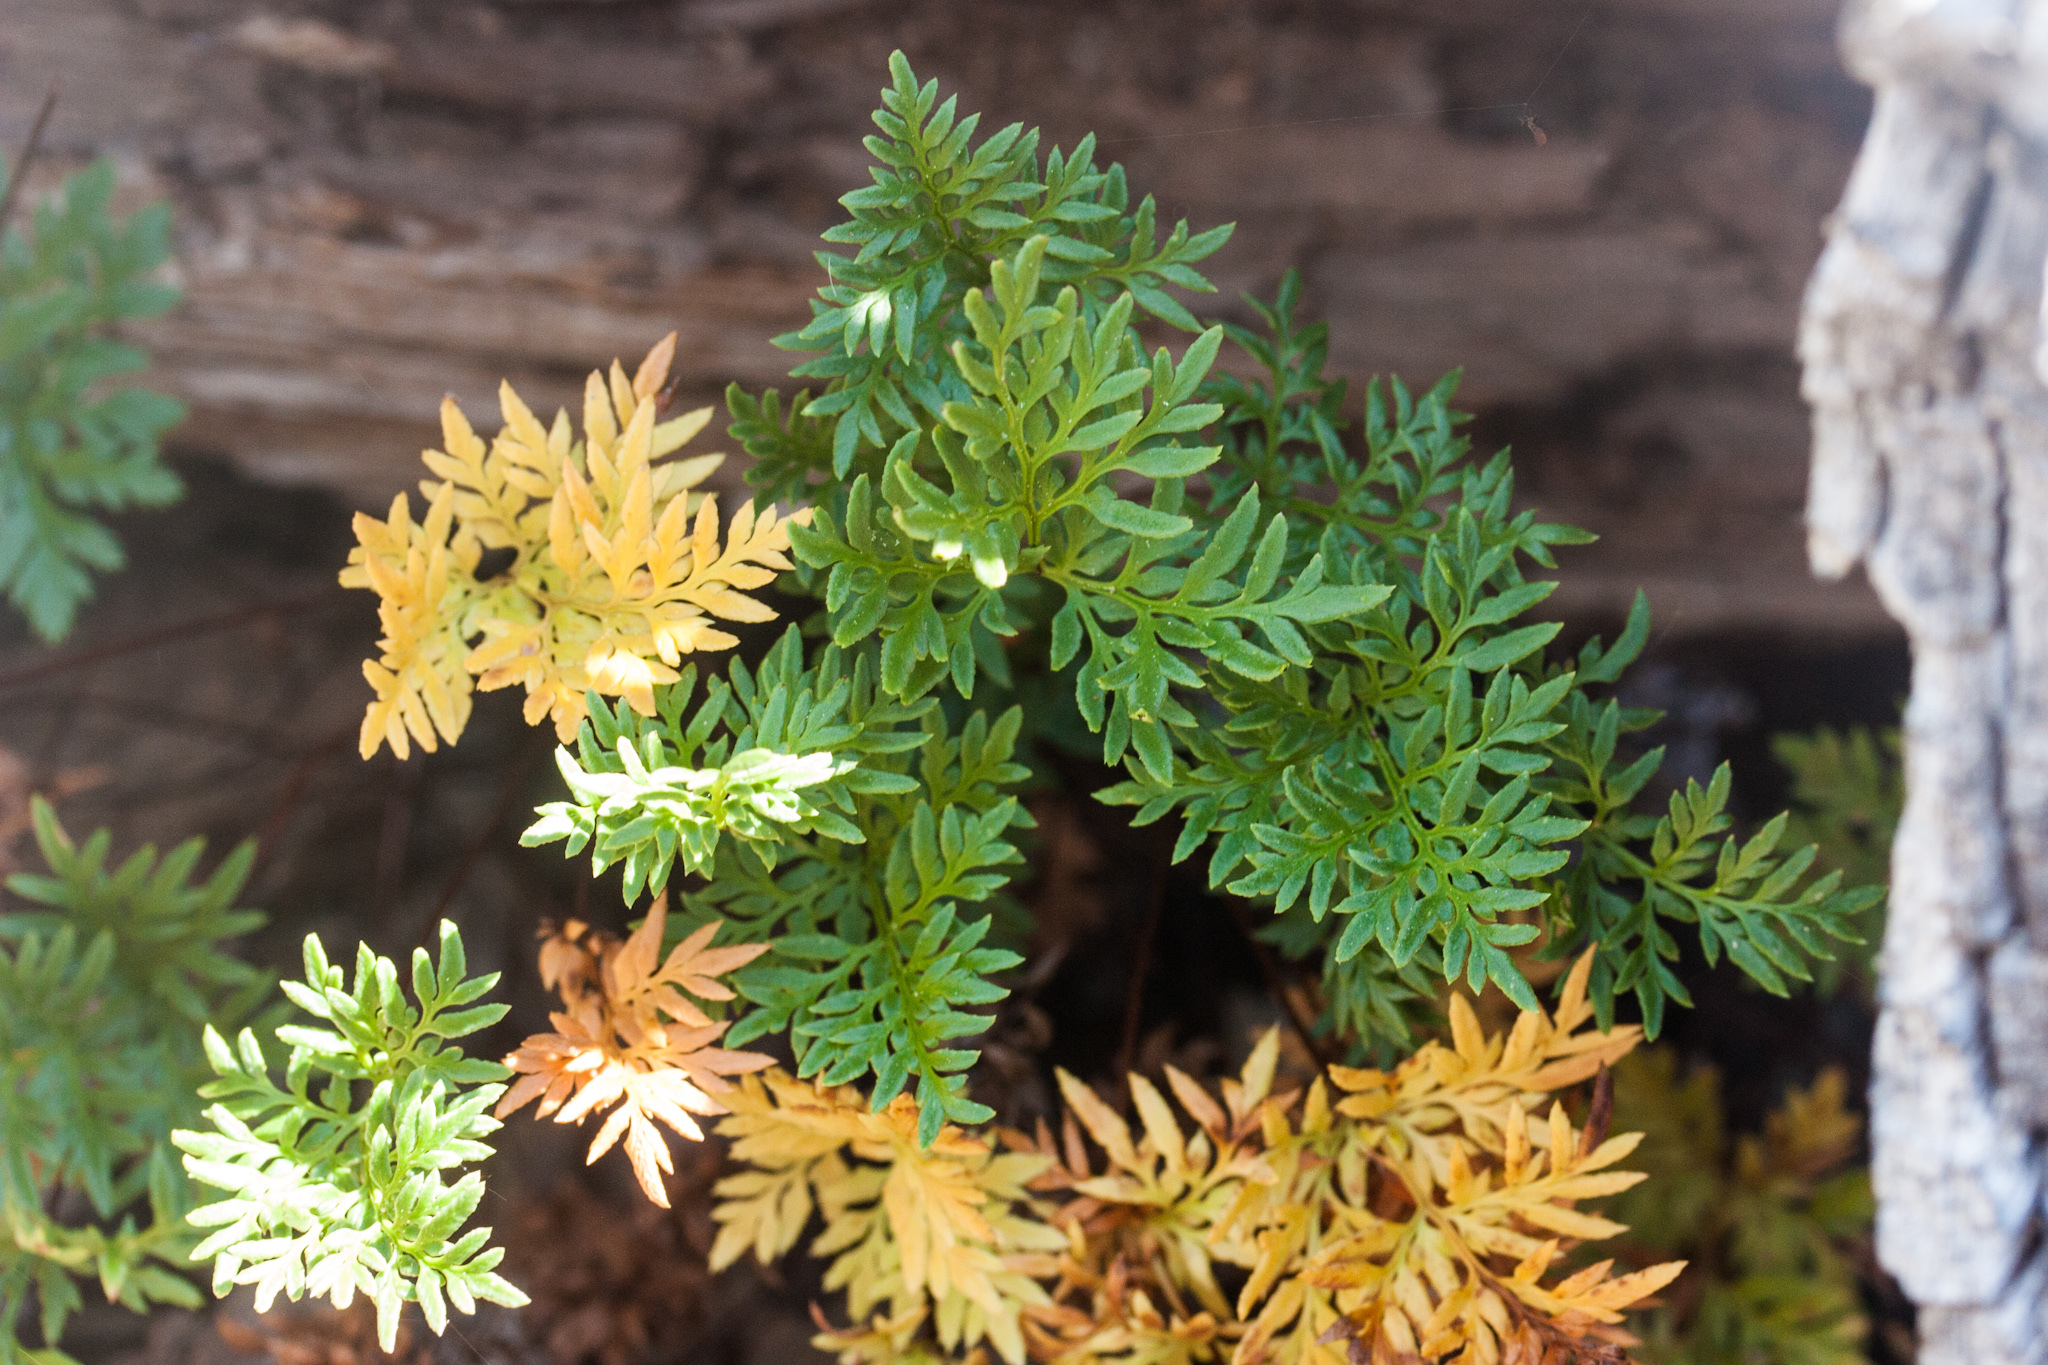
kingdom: Plantae
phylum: Tracheophyta
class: Polypodiopsida
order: Polypodiales
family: Pteridaceae
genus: Aspidotis
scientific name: Aspidotis densa
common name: Indian's dream
